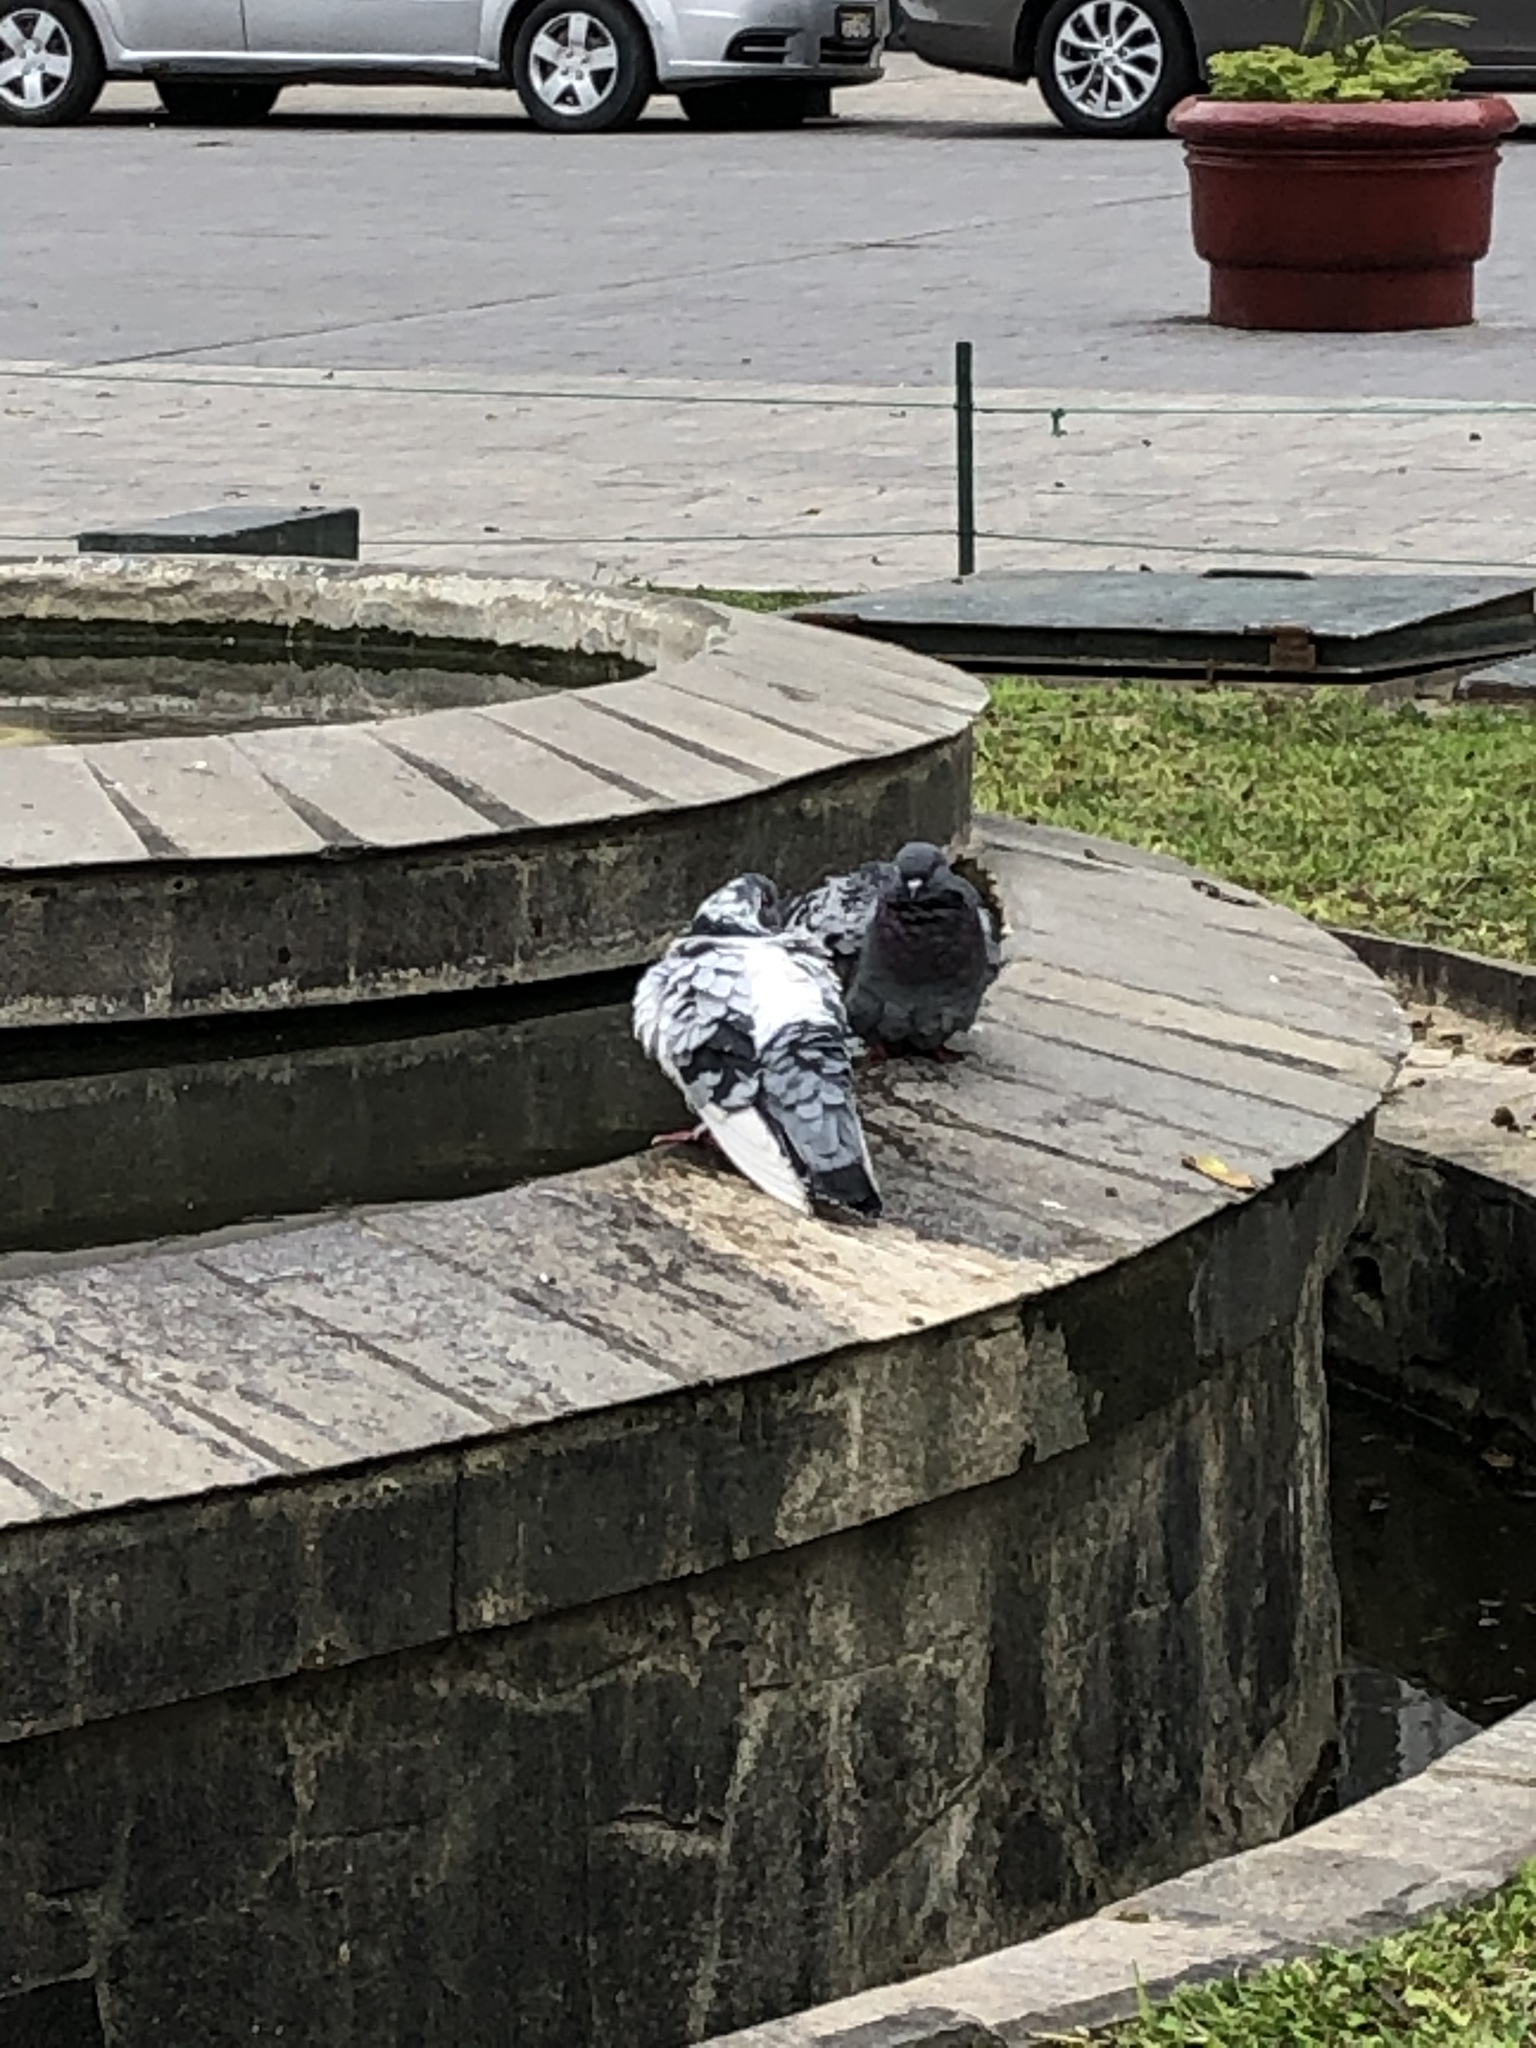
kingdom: Animalia
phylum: Chordata
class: Aves
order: Columbiformes
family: Columbidae
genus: Columba
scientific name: Columba livia
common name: Rock pigeon
